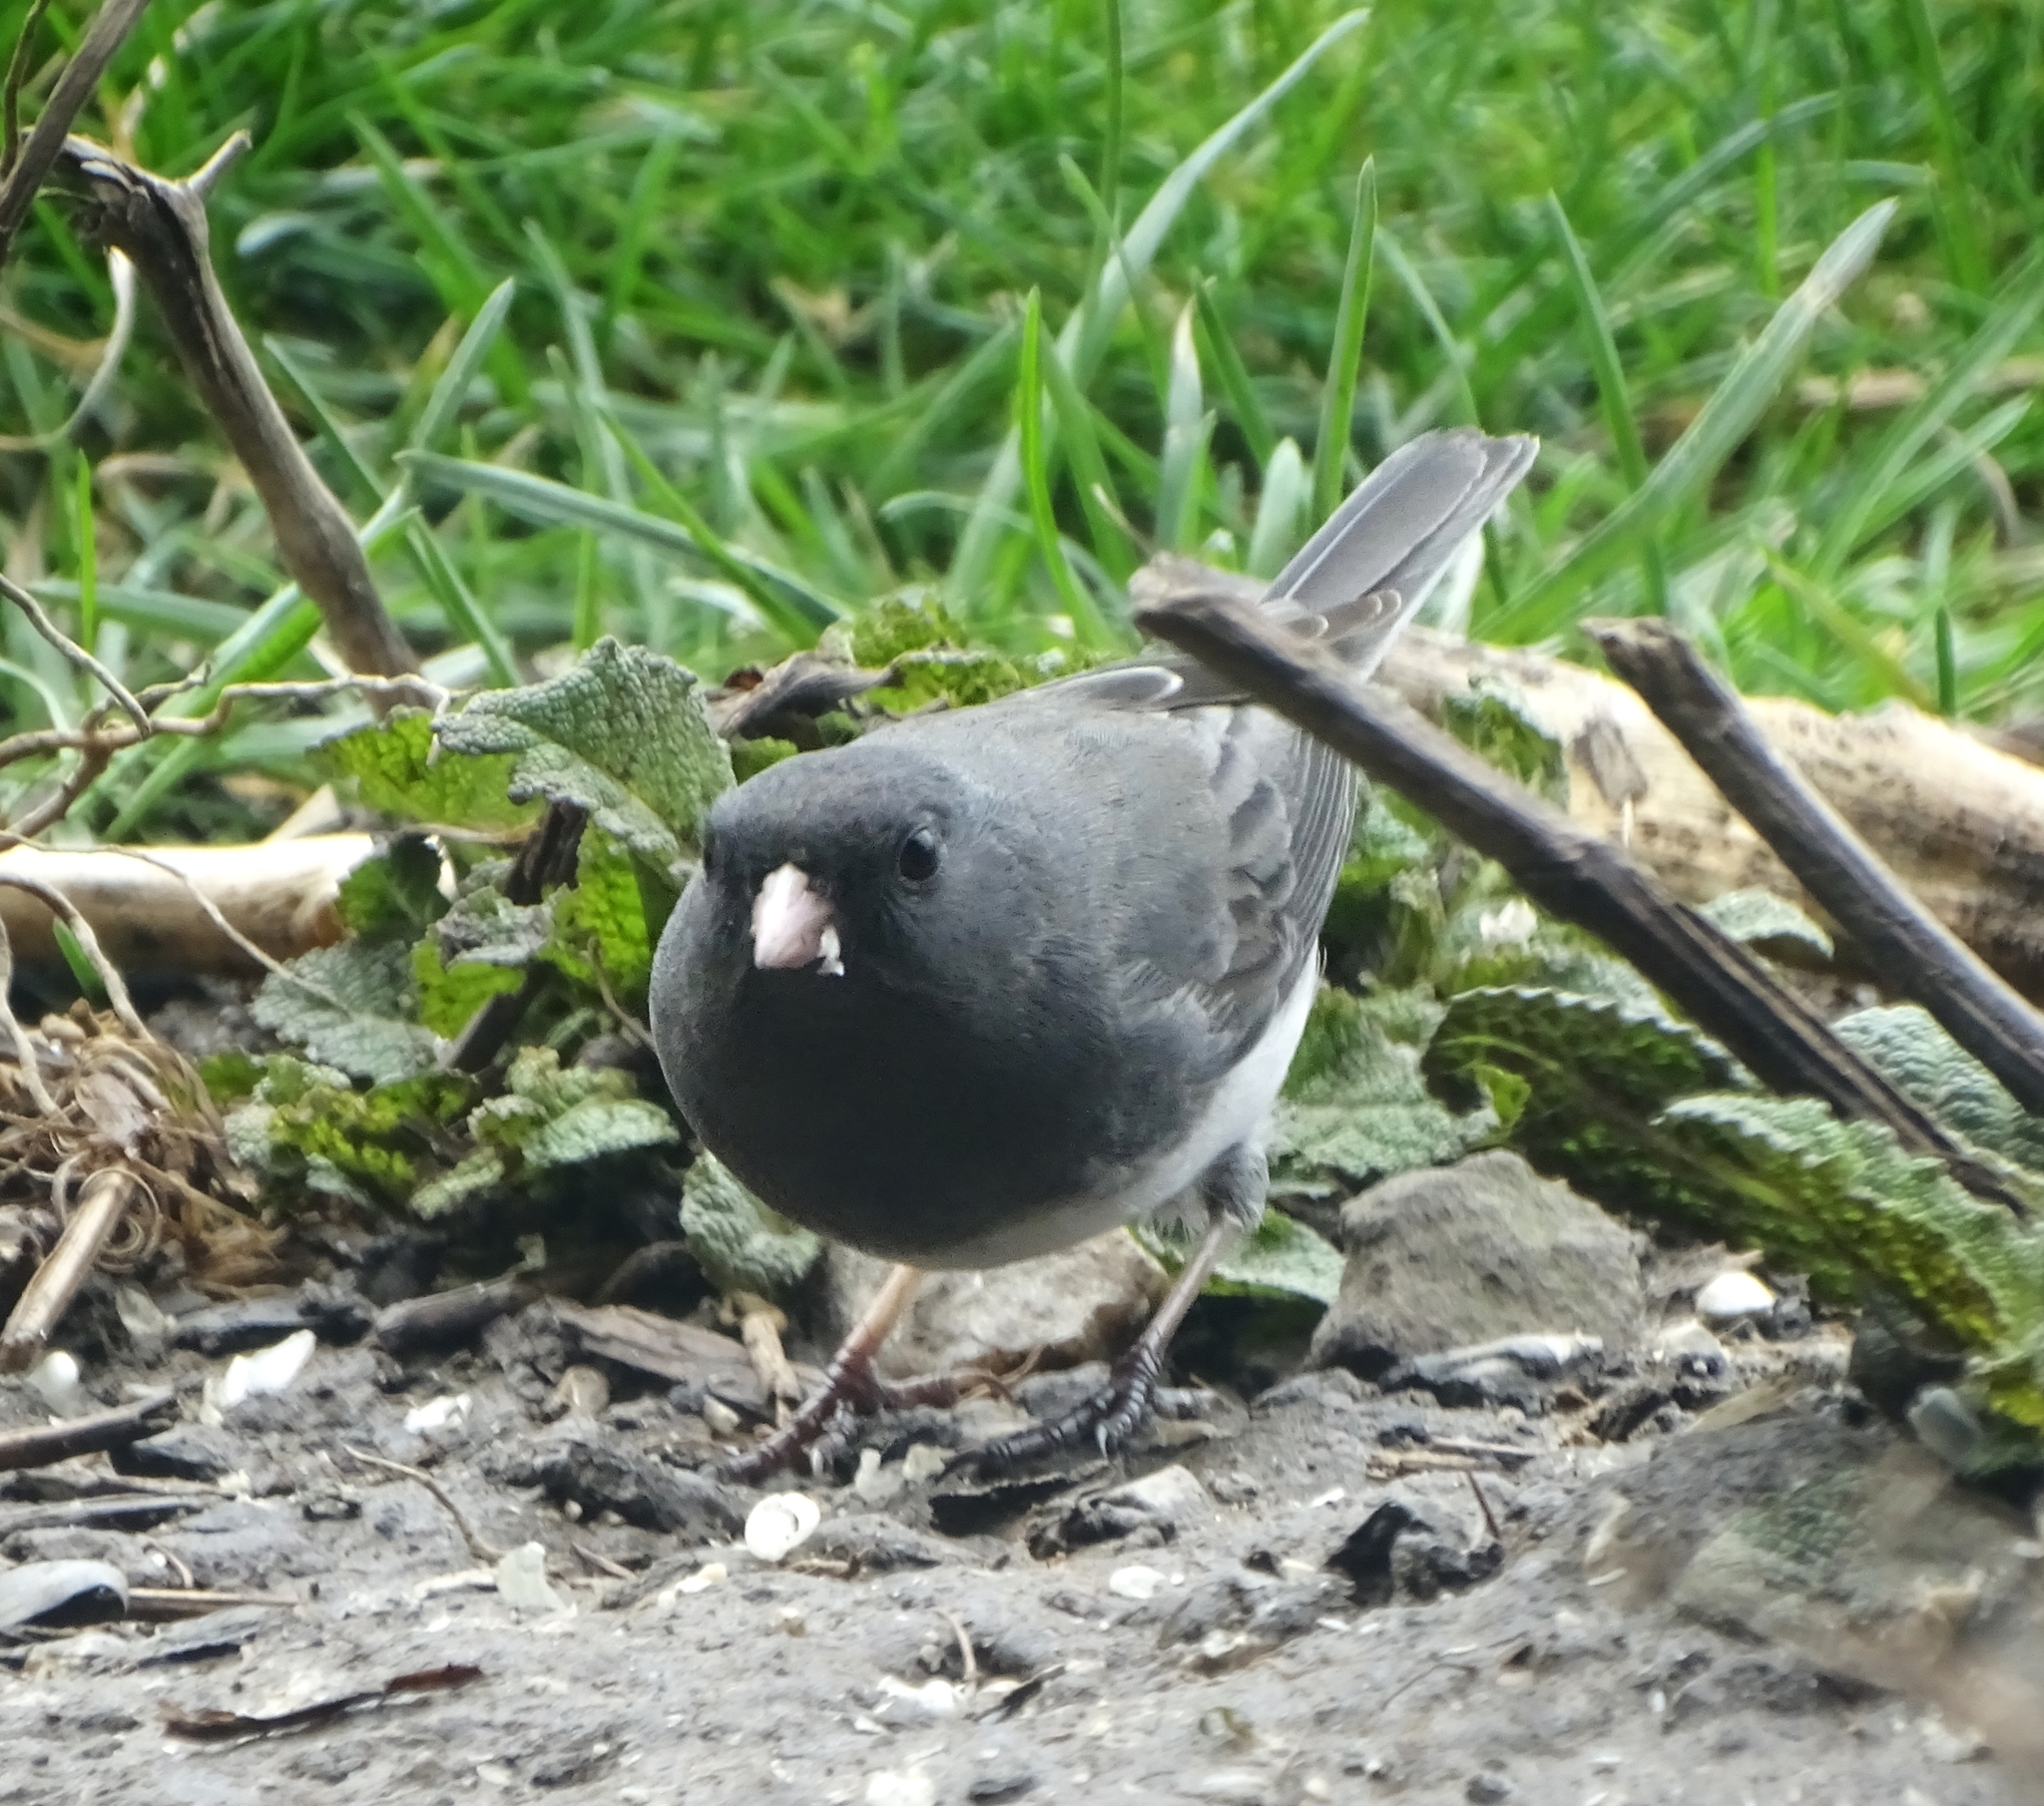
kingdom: Animalia
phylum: Chordata
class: Aves
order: Passeriformes
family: Passerellidae
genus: Junco
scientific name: Junco hyemalis
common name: Dark-eyed junco
